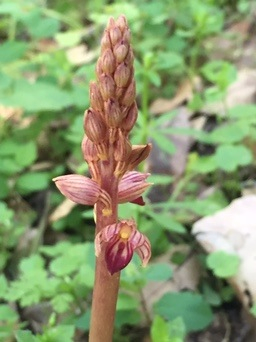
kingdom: Plantae
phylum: Tracheophyta
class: Liliopsida
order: Asparagales
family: Orchidaceae
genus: Corallorhiza
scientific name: Corallorhiza striata
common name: Hooded coralroot
